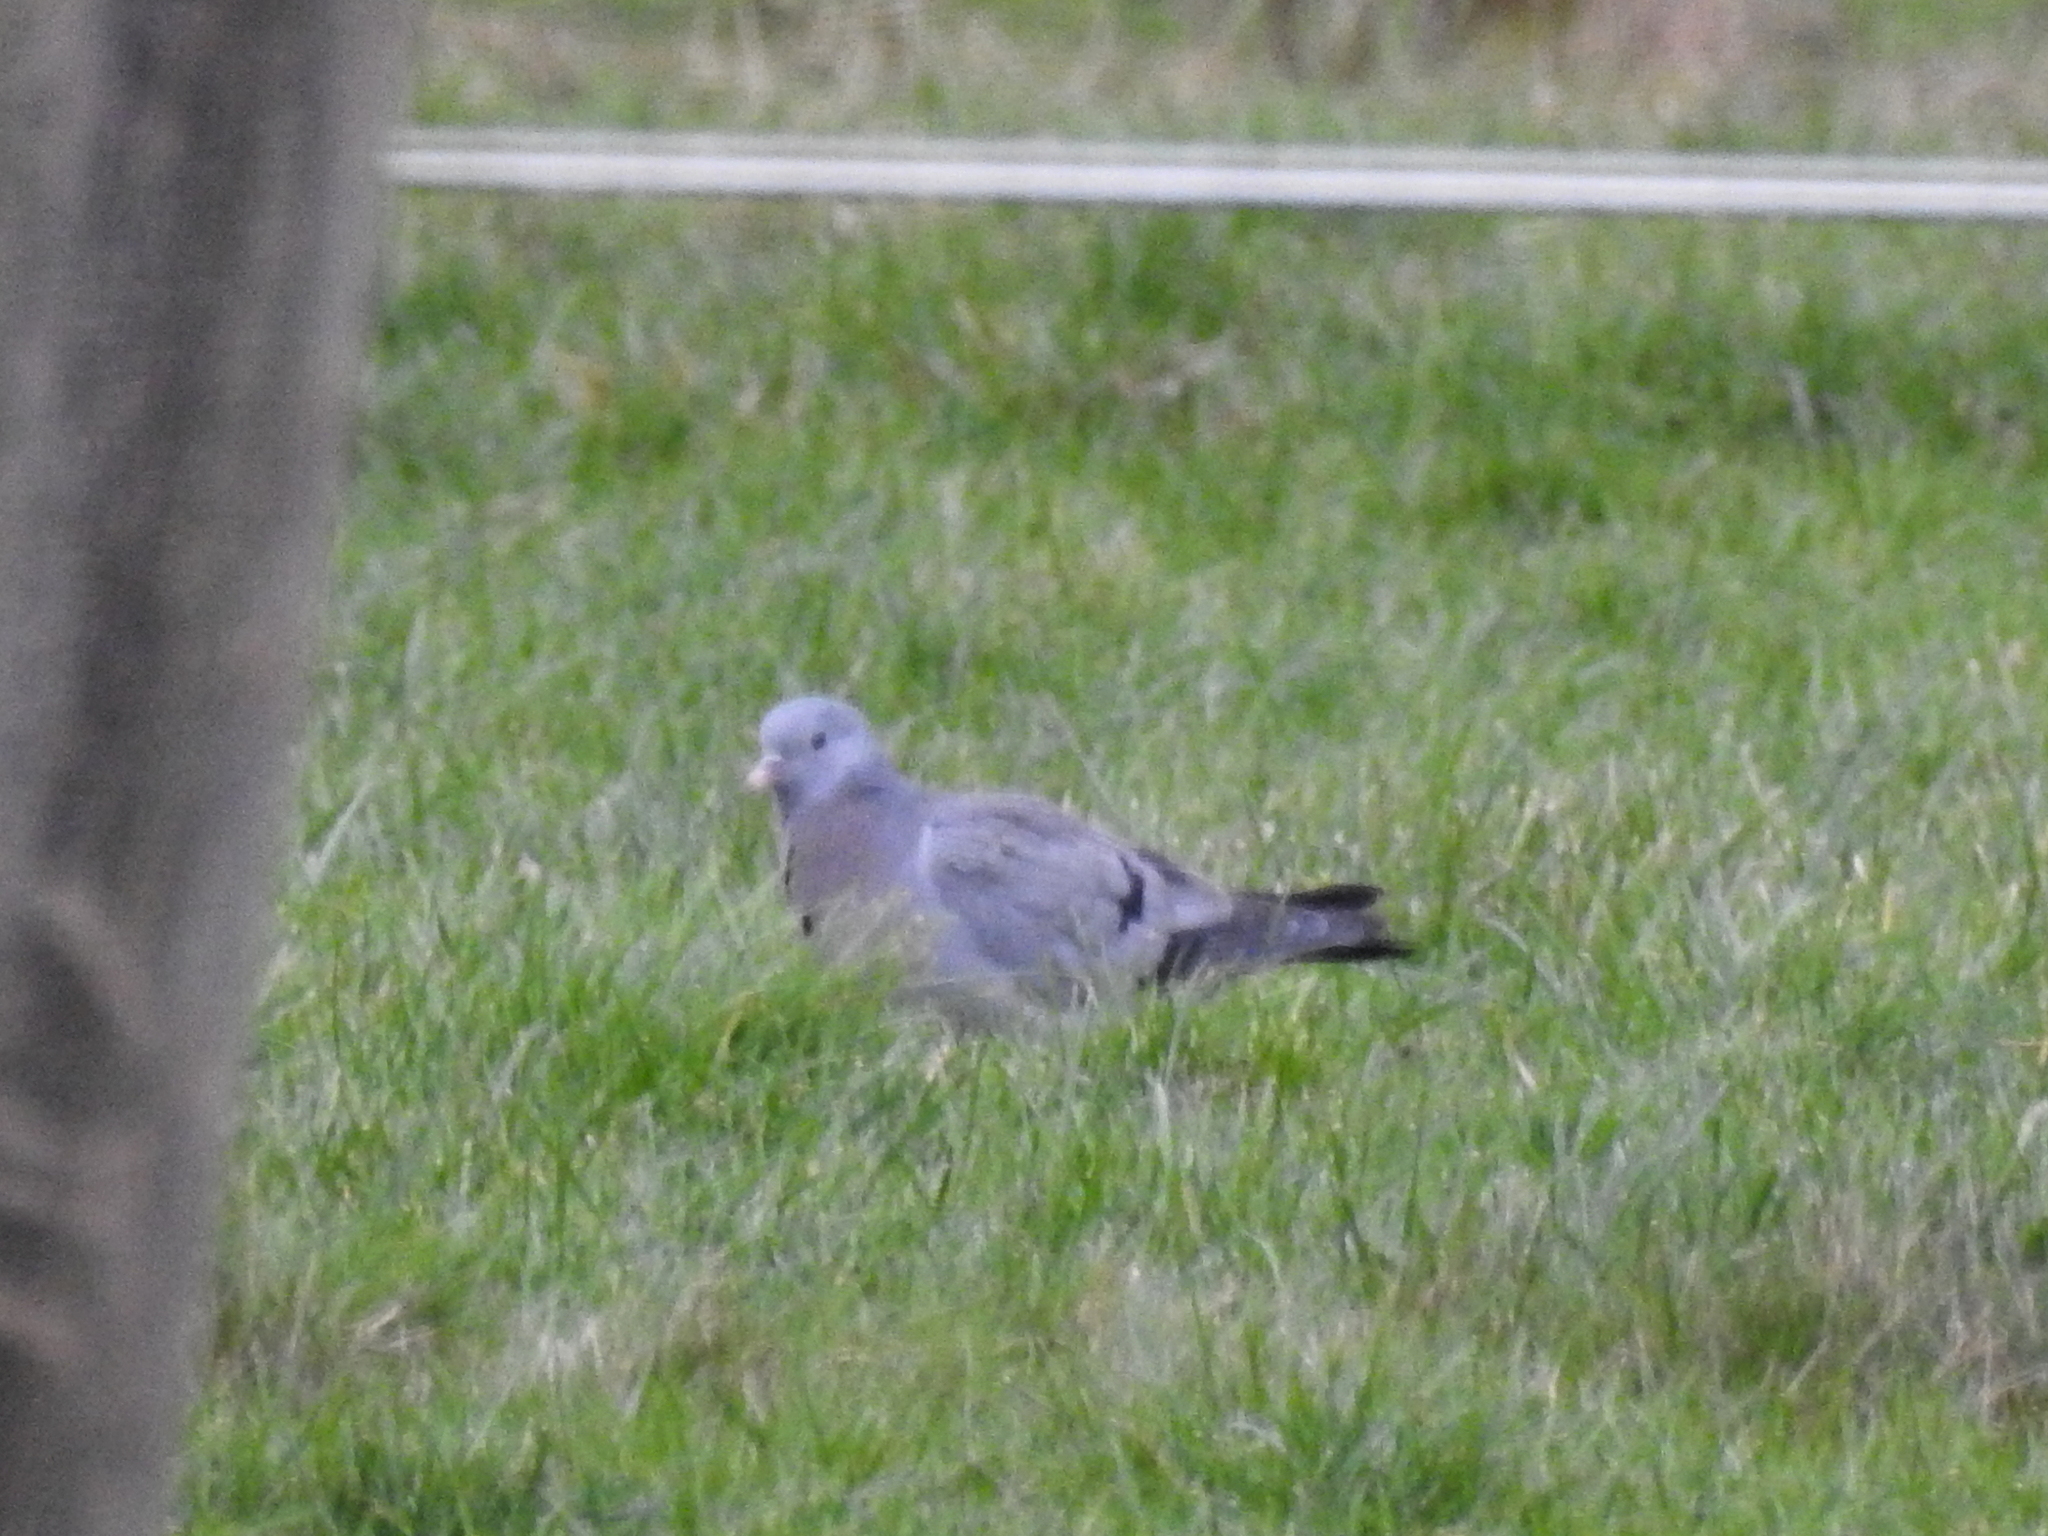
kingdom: Animalia
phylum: Chordata
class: Aves
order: Columbiformes
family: Columbidae
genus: Columba
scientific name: Columba oenas
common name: Stock dove
